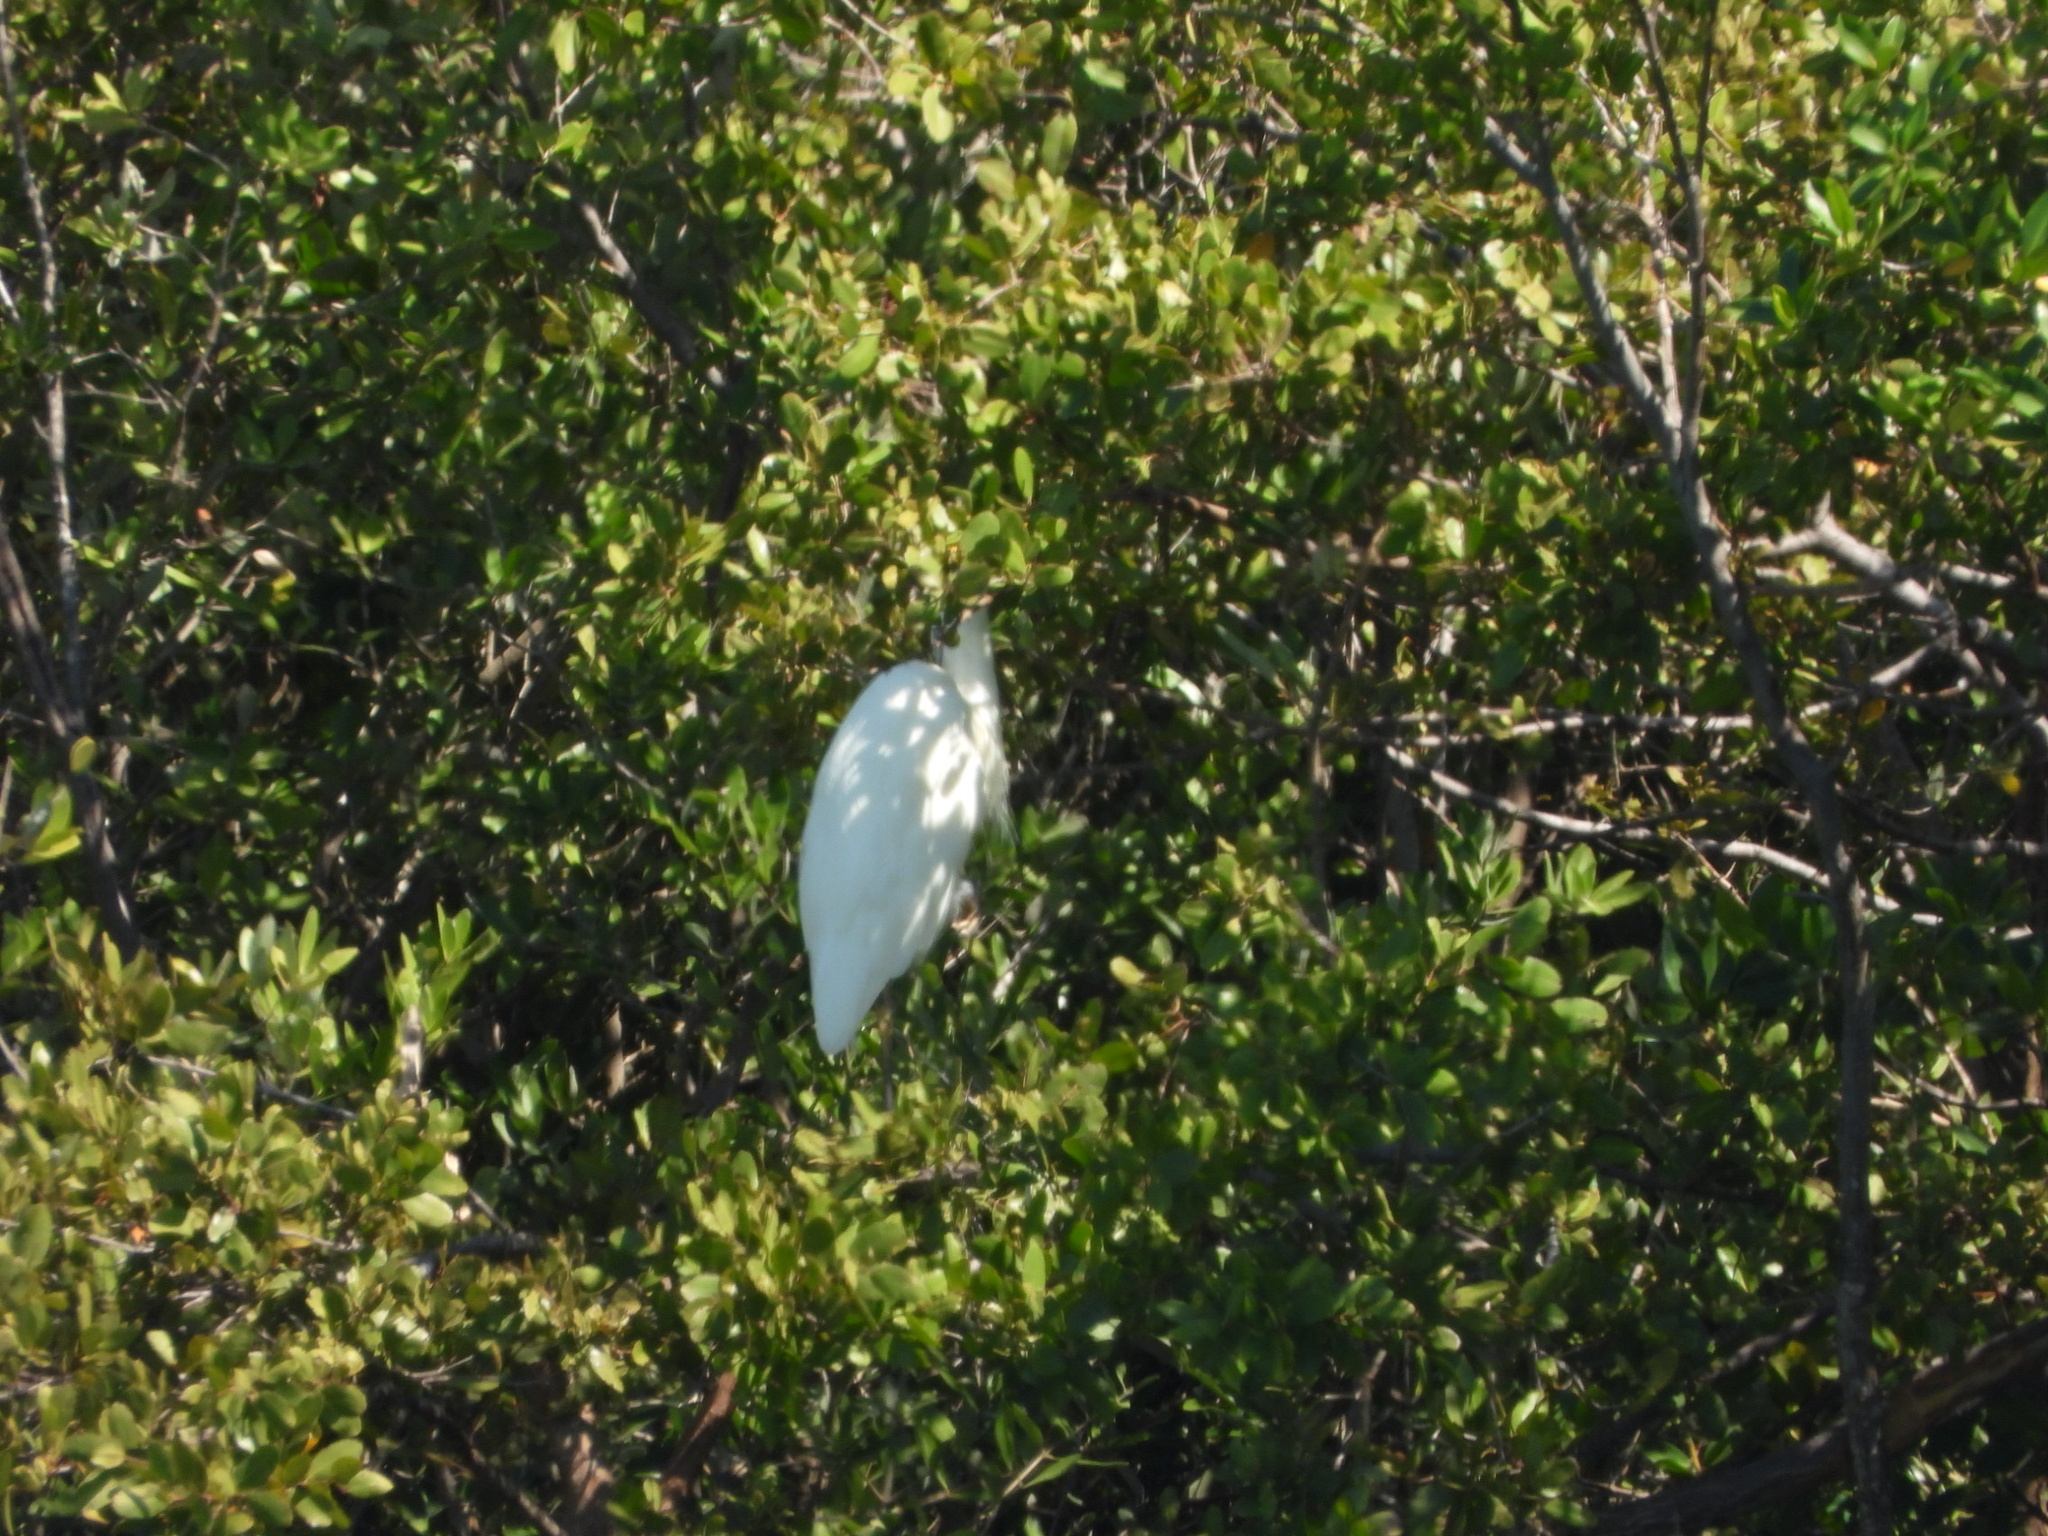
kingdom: Animalia
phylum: Chordata
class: Aves
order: Pelecaniformes
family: Ardeidae
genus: Ardea
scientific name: Ardea herodias
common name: Great blue heron
